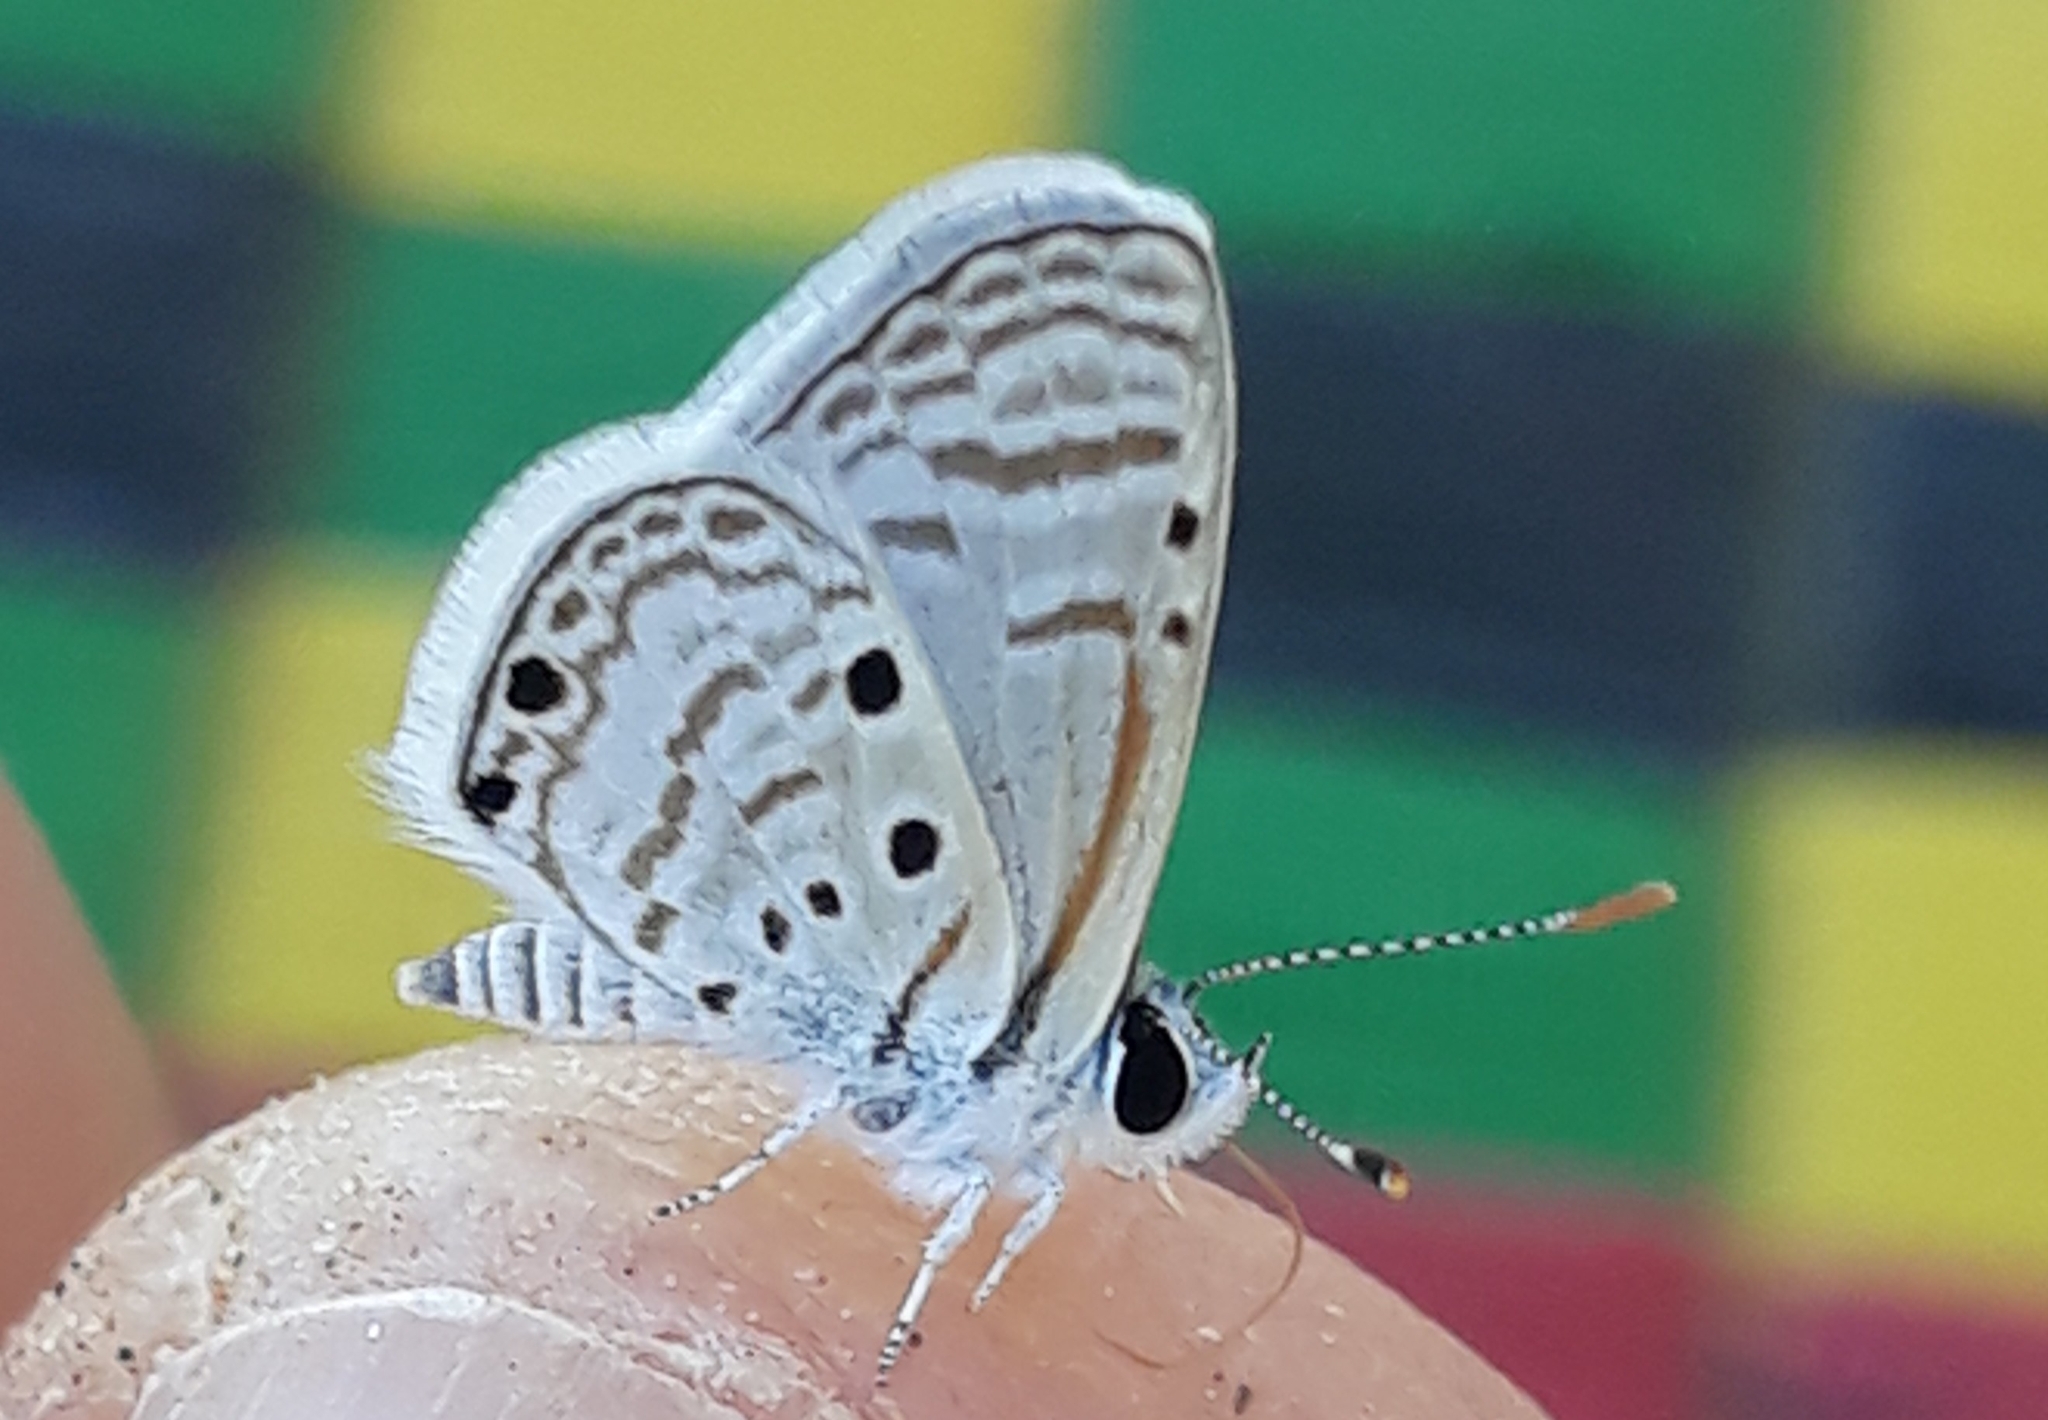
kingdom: Animalia
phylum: Arthropoda
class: Insecta
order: Lepidoptera
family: Lycaenidae
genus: Azanus
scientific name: Azanus ubaldus
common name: Desert babul blue
